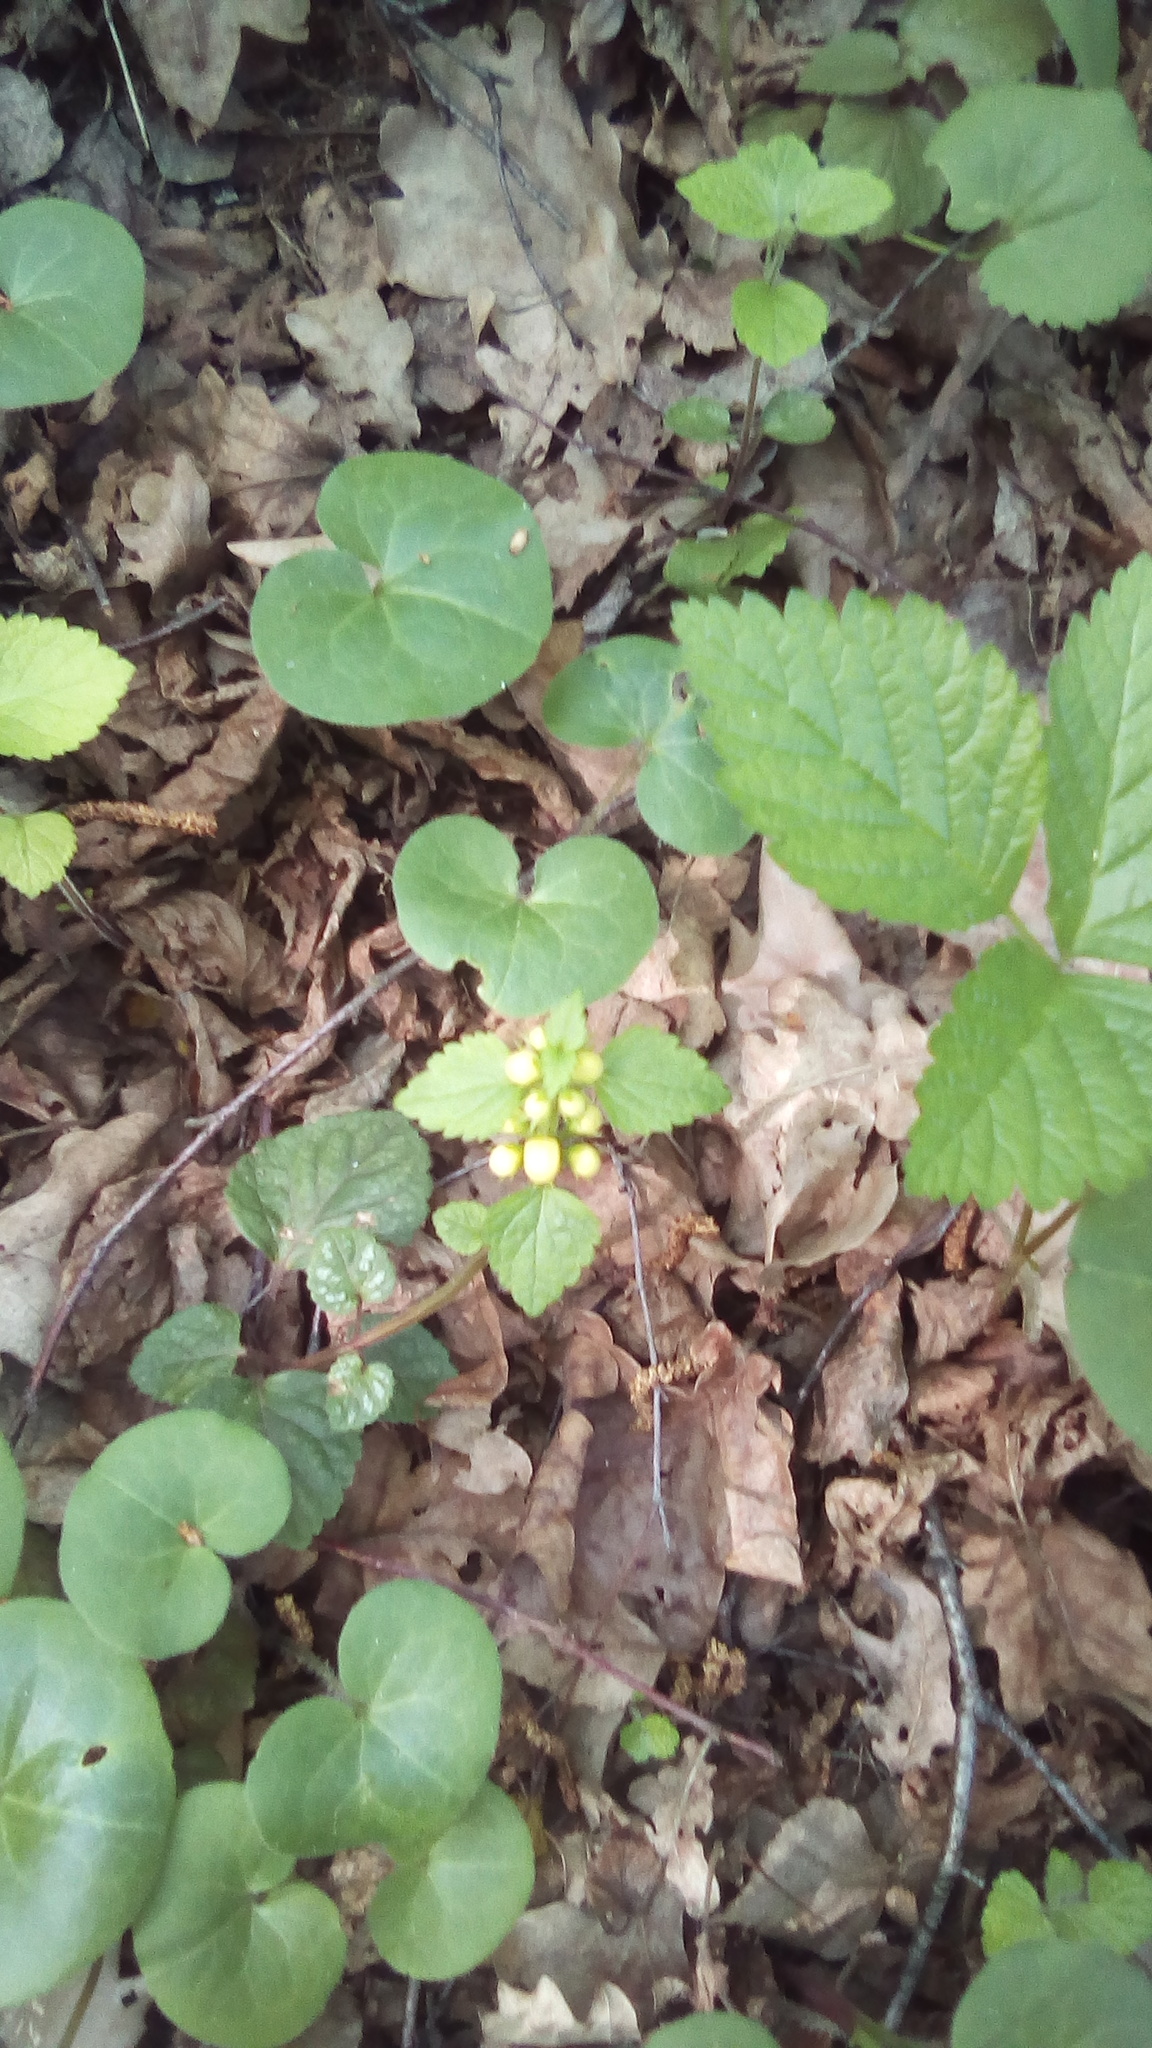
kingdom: Plantae
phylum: Tracheophyta
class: Magnoliopsida
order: Lamiales
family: Lamiaceae
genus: Lamium
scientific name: Lamium galeobdolon
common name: Yellow archangel
